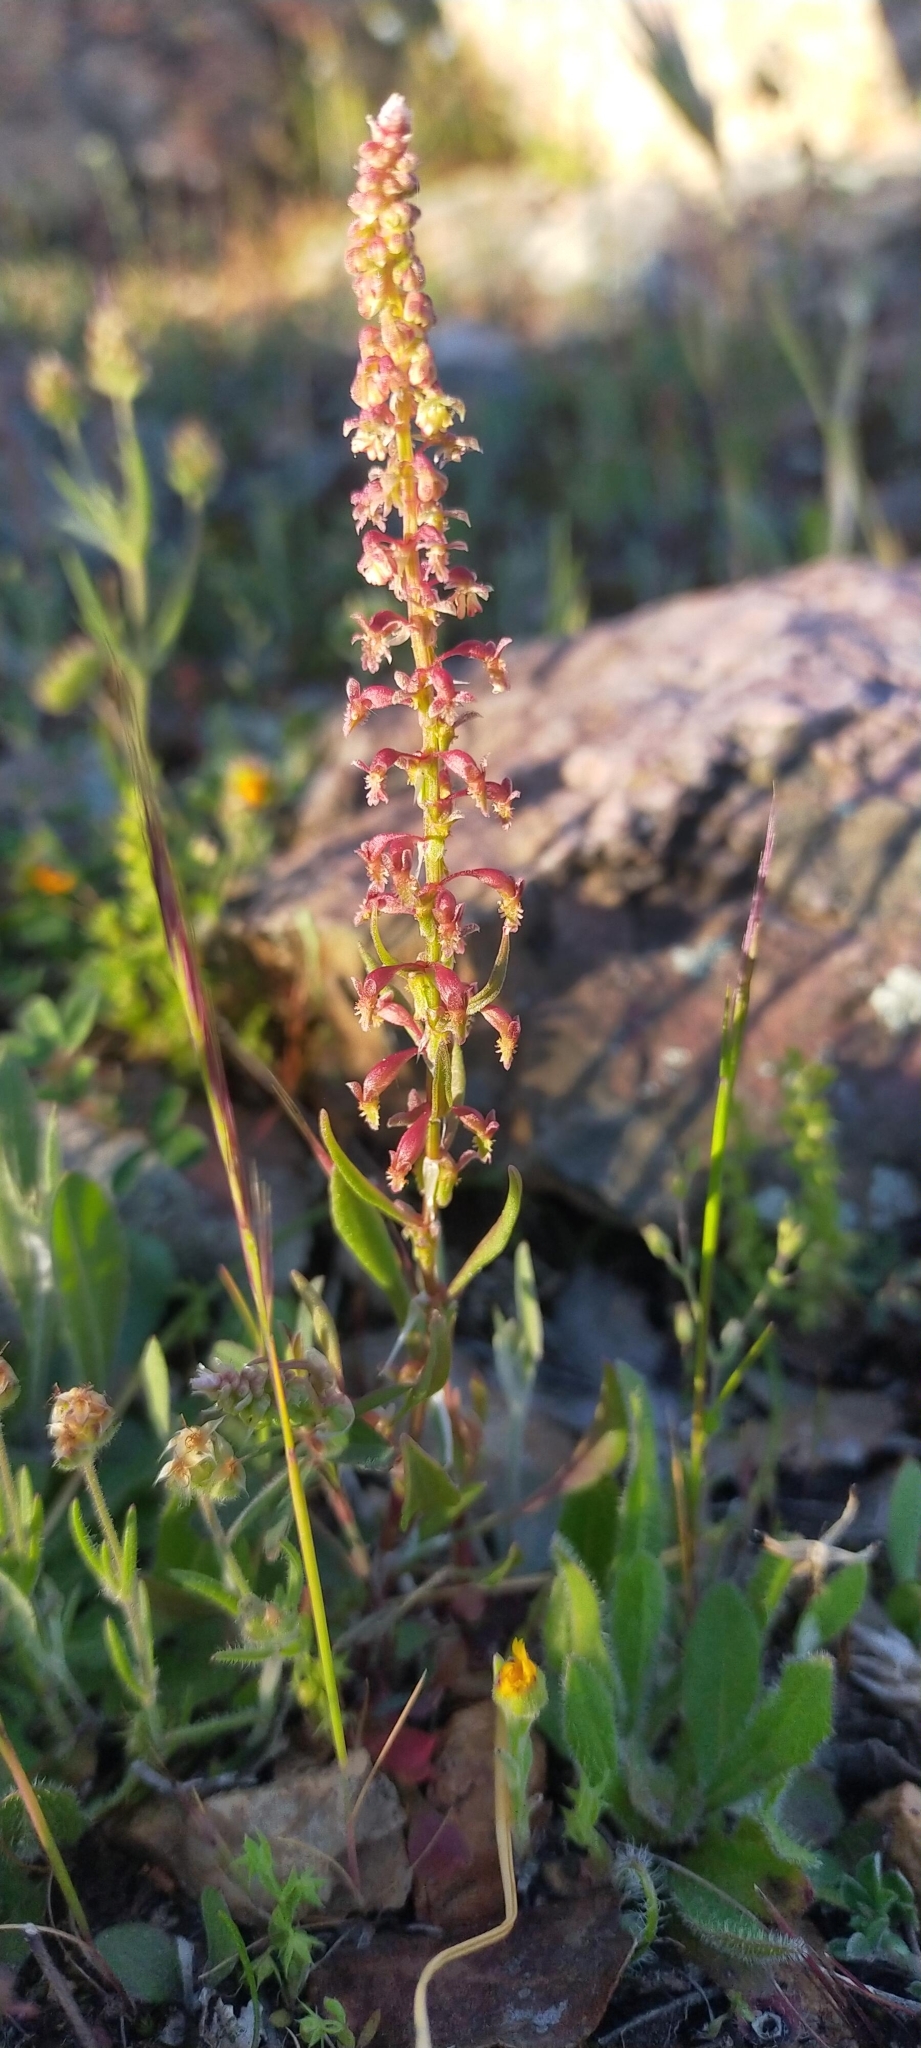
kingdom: Plantae
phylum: Tracheophyta
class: Magnoliopsida
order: Caryophyllales
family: Polygonaceae
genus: Rumex
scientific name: Rumex bucephalophorus
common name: Red dock
